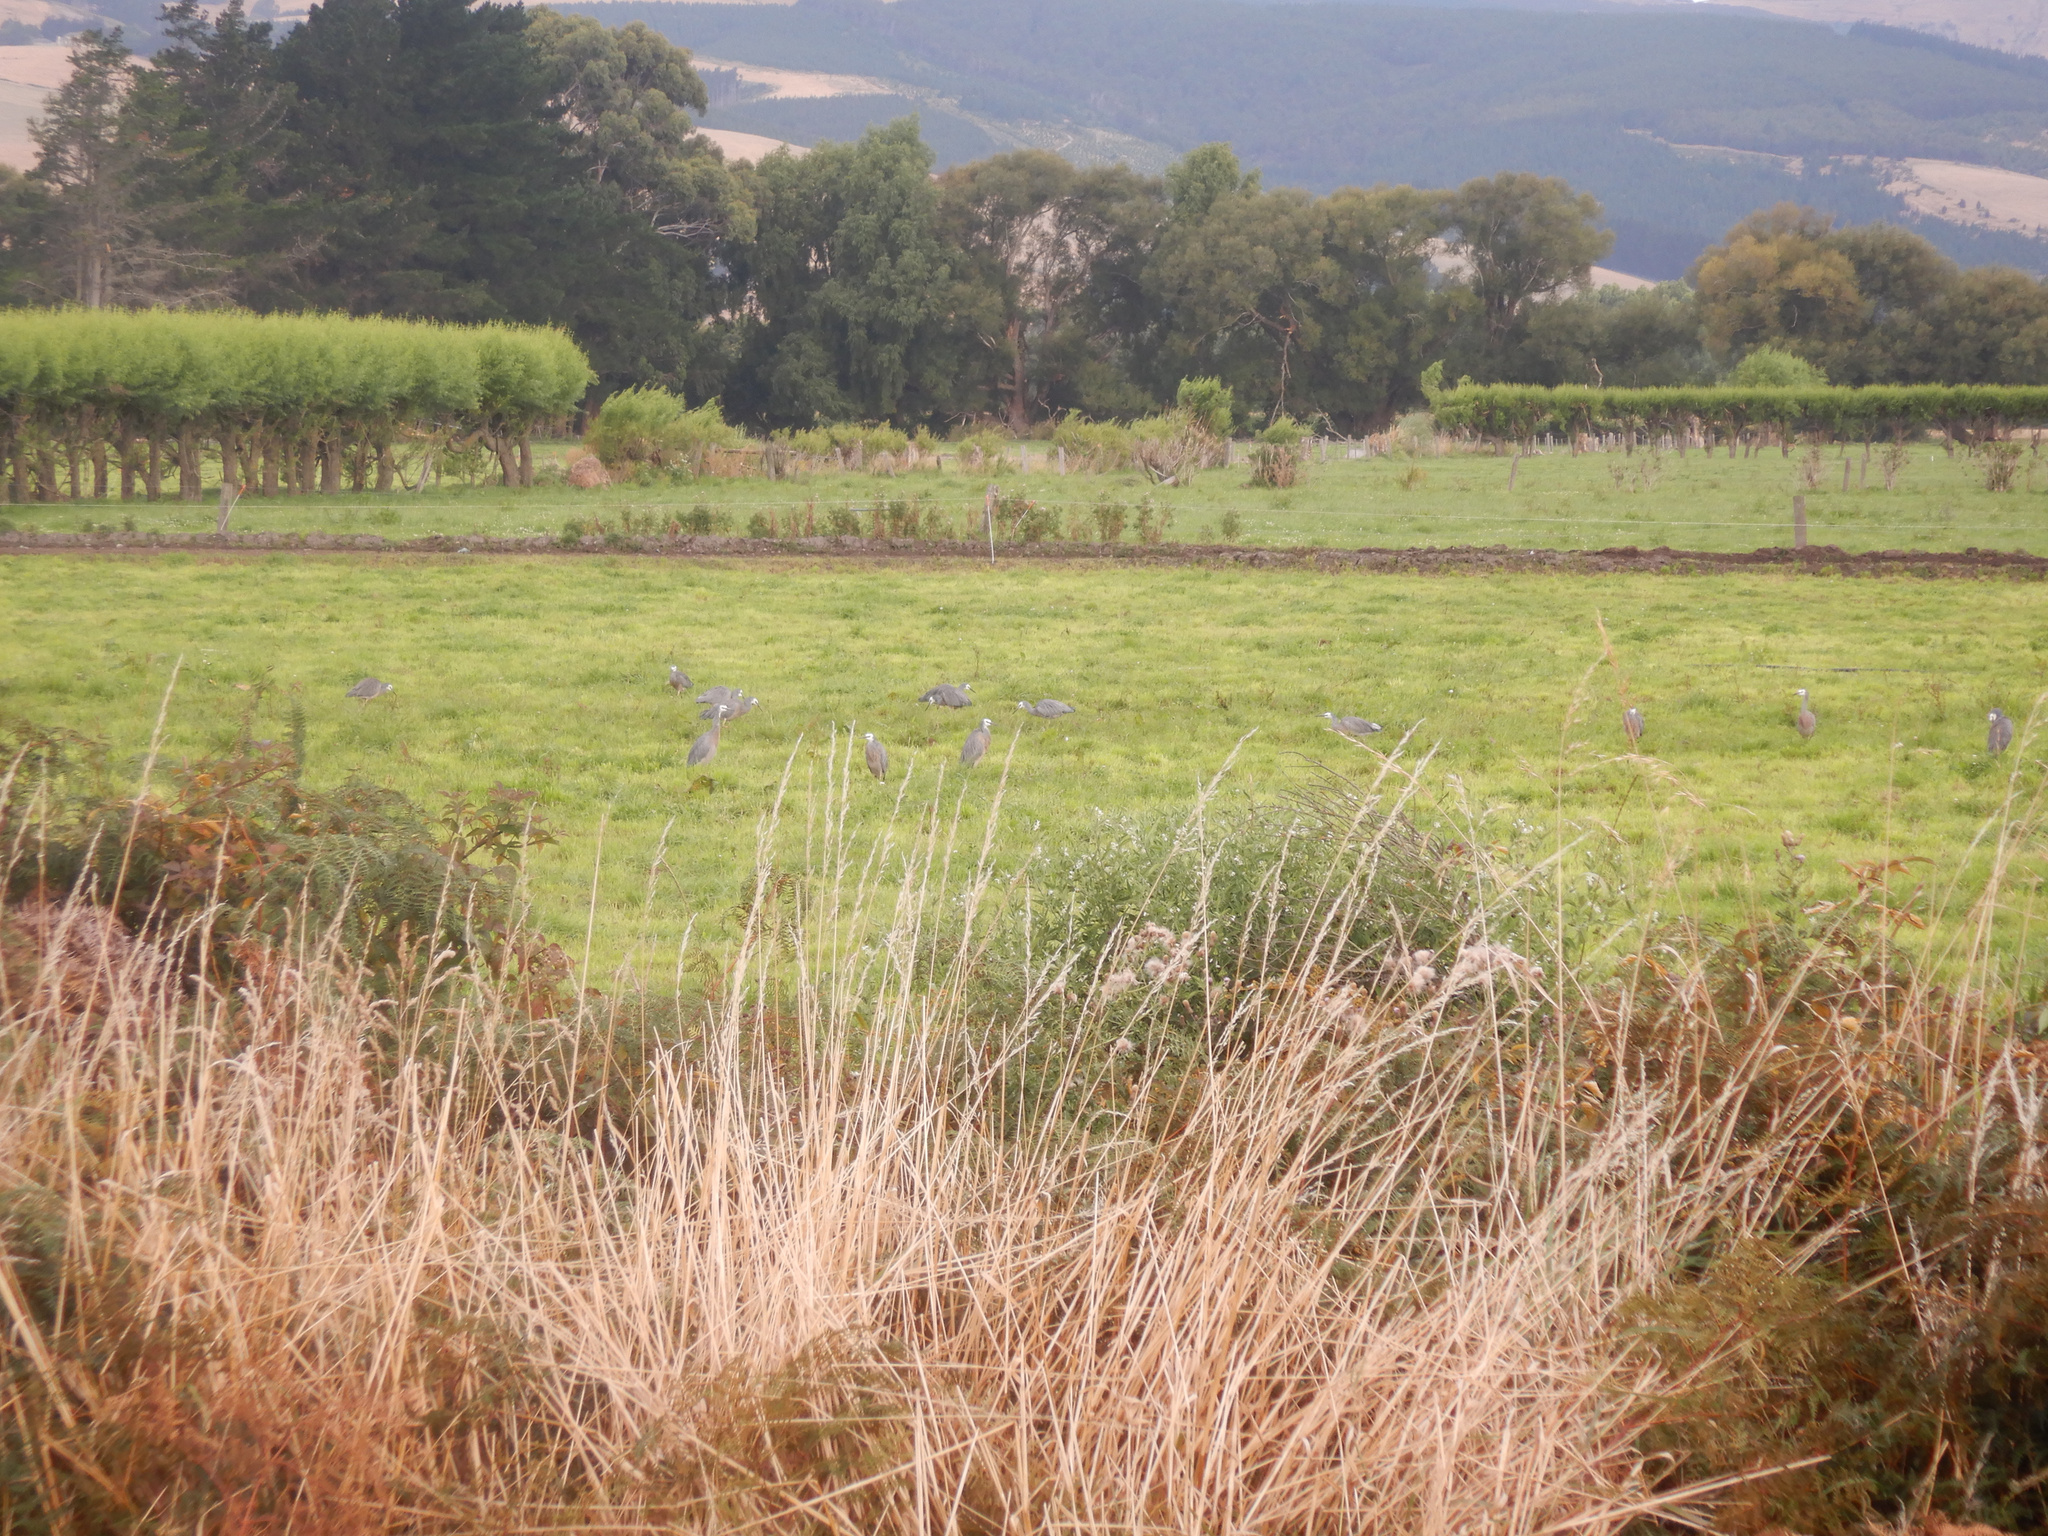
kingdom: Animalia
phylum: Chordata
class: Aves
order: Pelecaniformes
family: Ardeidae
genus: Egretta
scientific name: Egretta novaehollandiae
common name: White-faced heron
